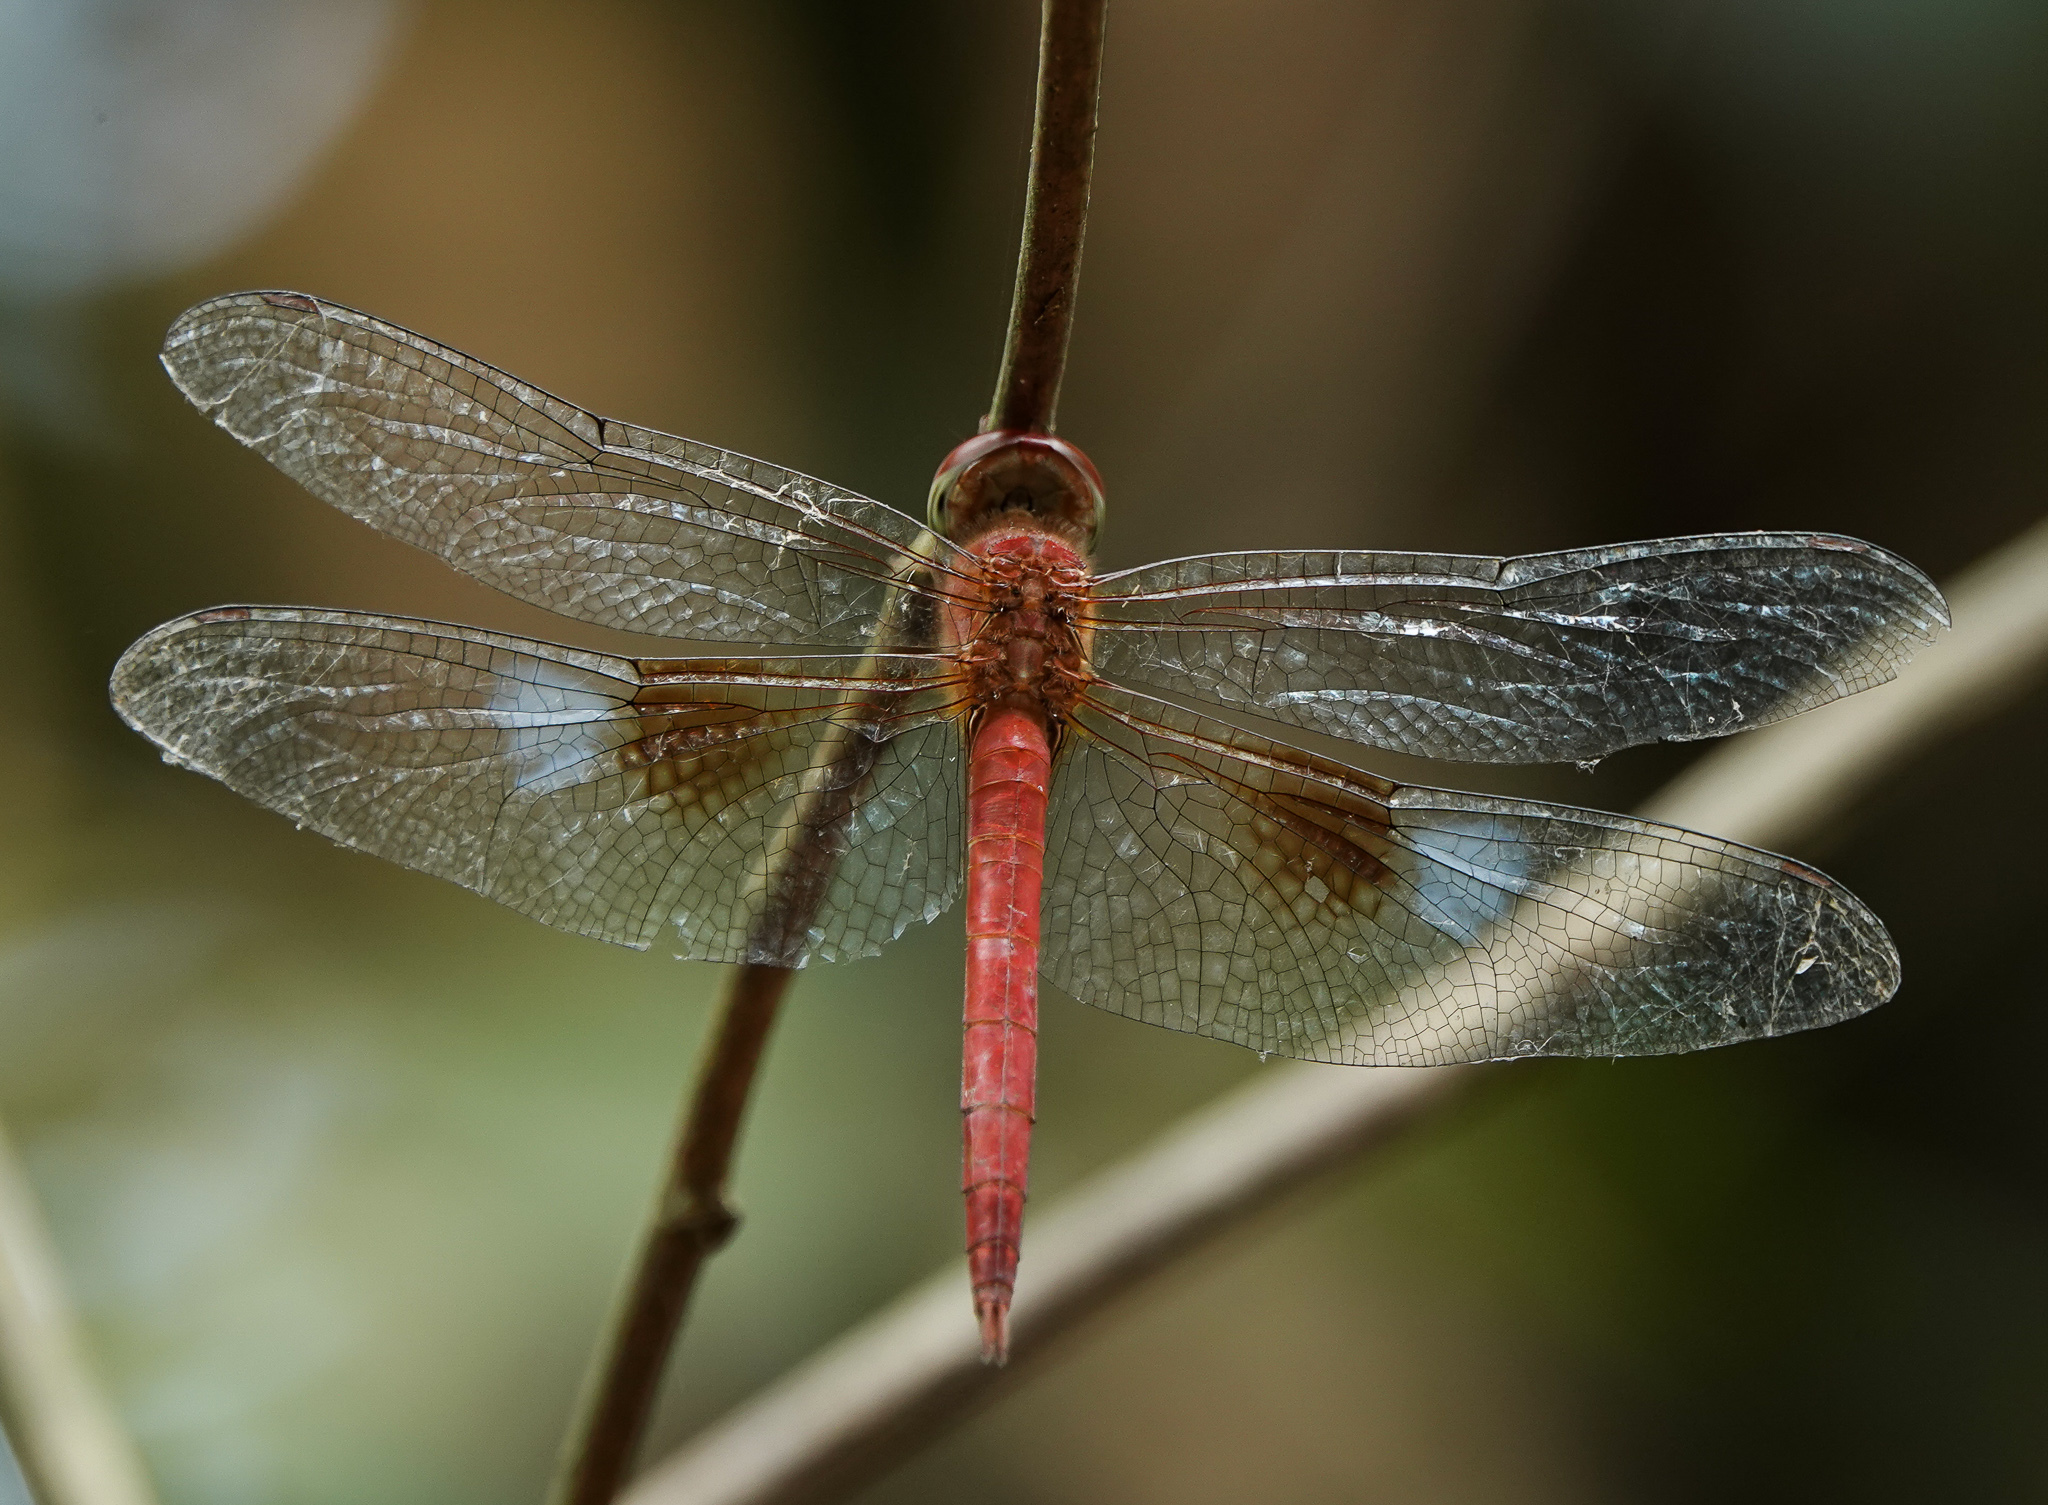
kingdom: Animalia
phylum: Arthropoda
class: Insecta
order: Odonata
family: Libellulidae
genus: Tholymis
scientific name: Tholymis tillarga
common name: Coral-tailed cloud wing
